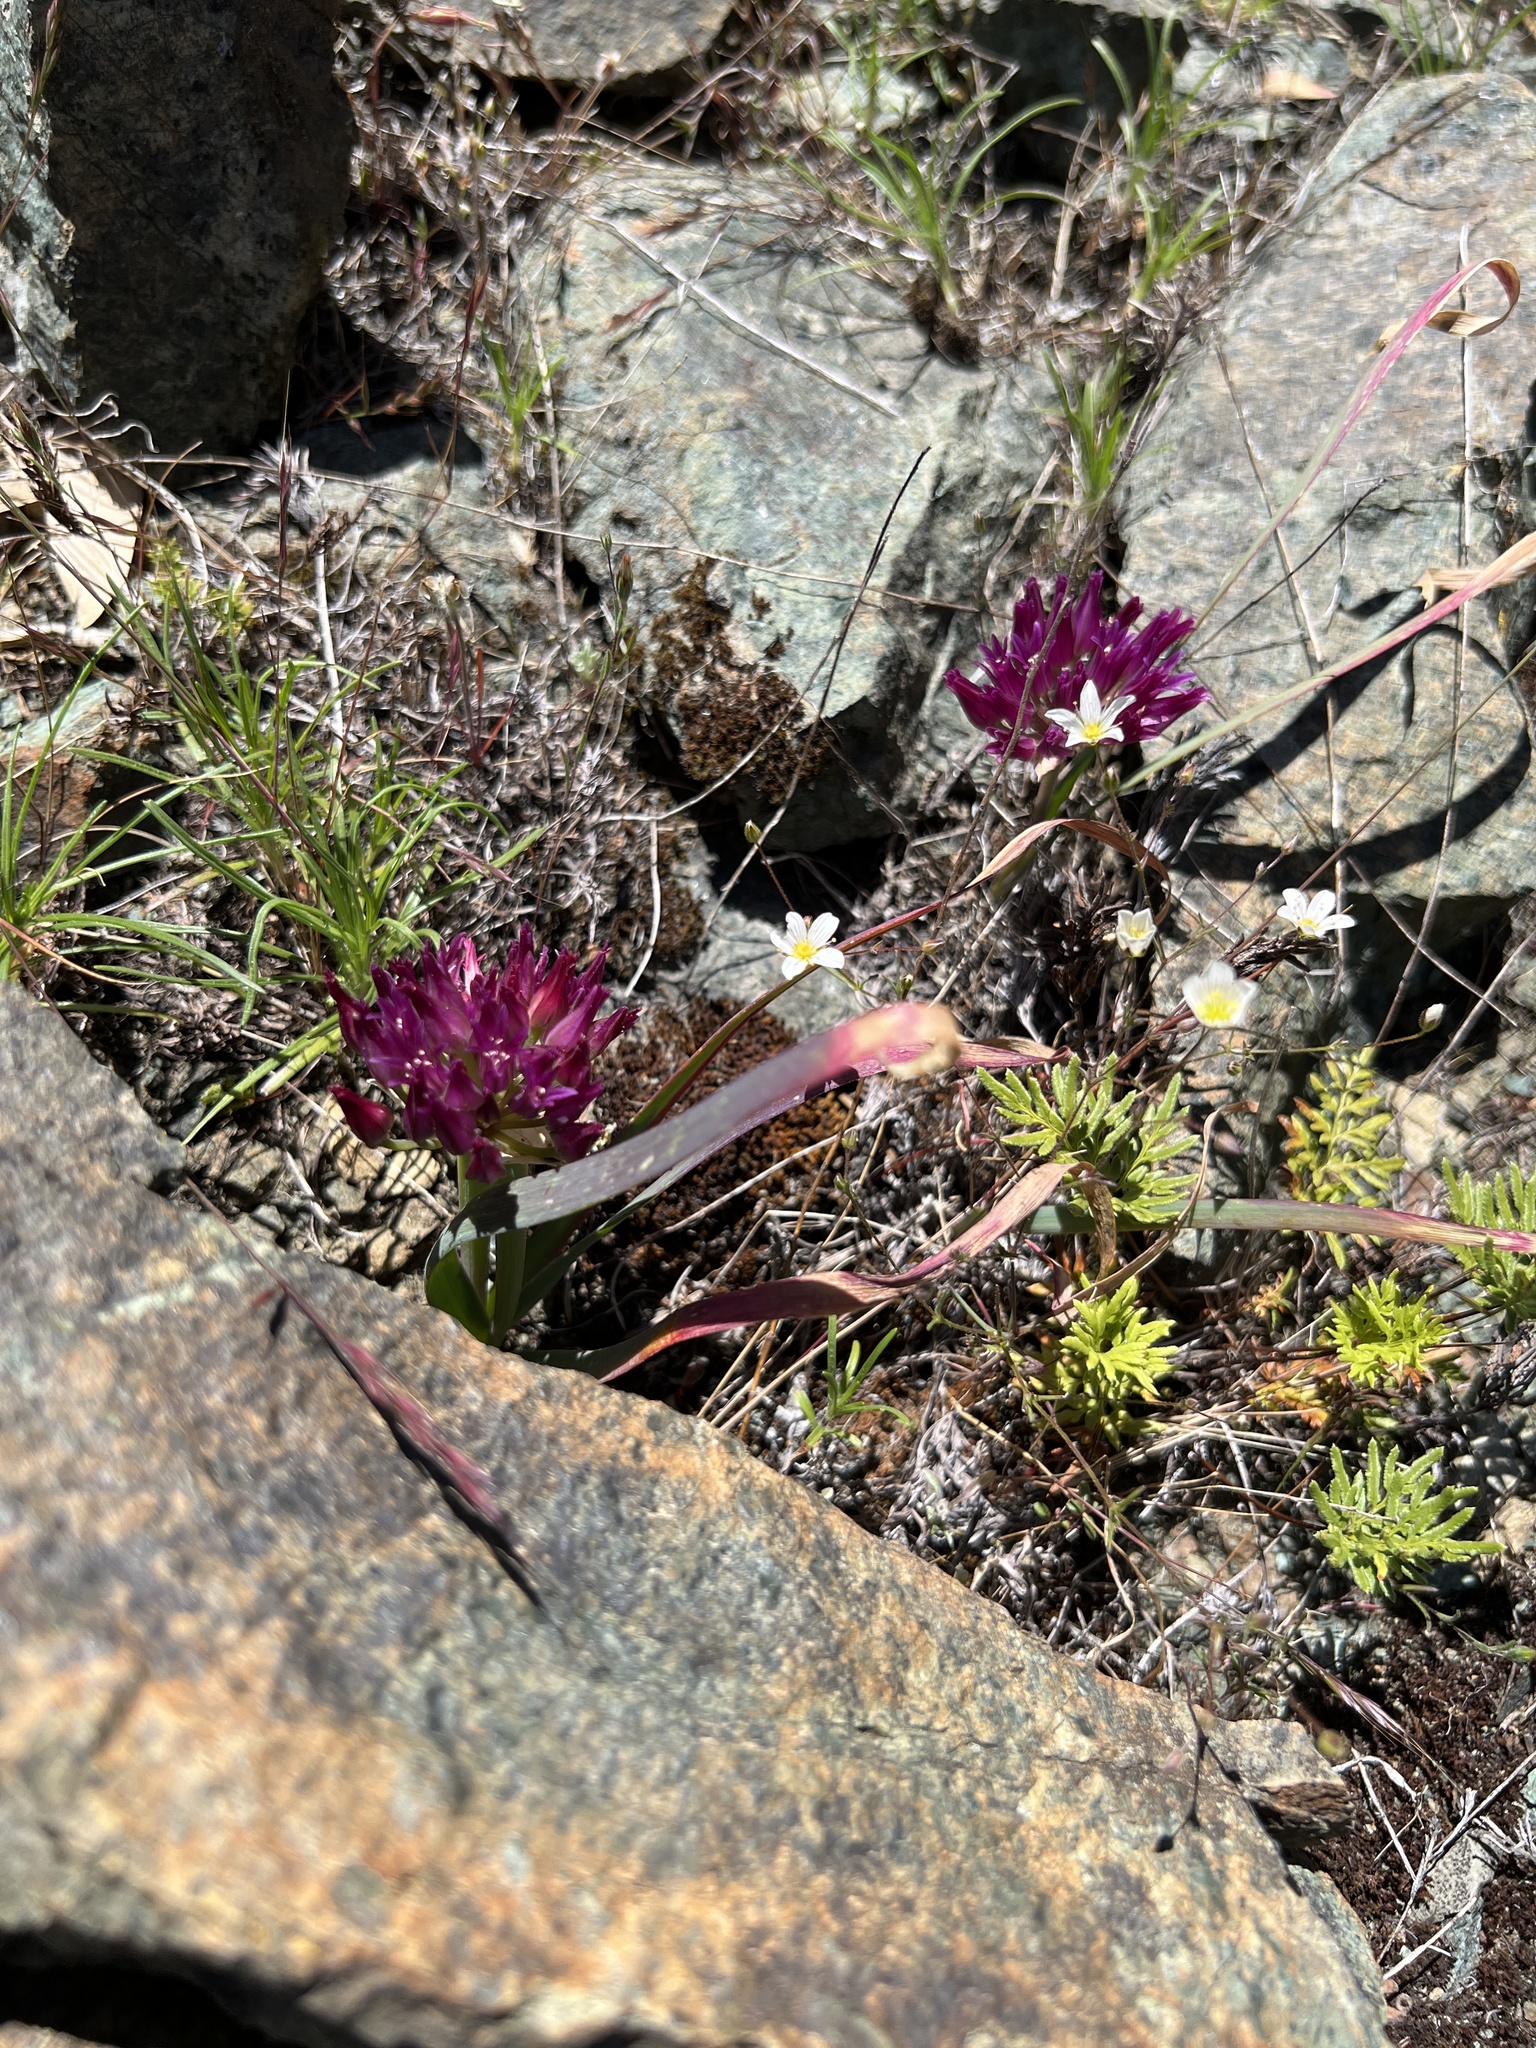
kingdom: Plantae
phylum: Tracheophyta
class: Liliopsida
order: Asparagales
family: Amaryllidaceae
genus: Allium
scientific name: Allium falcifolium
